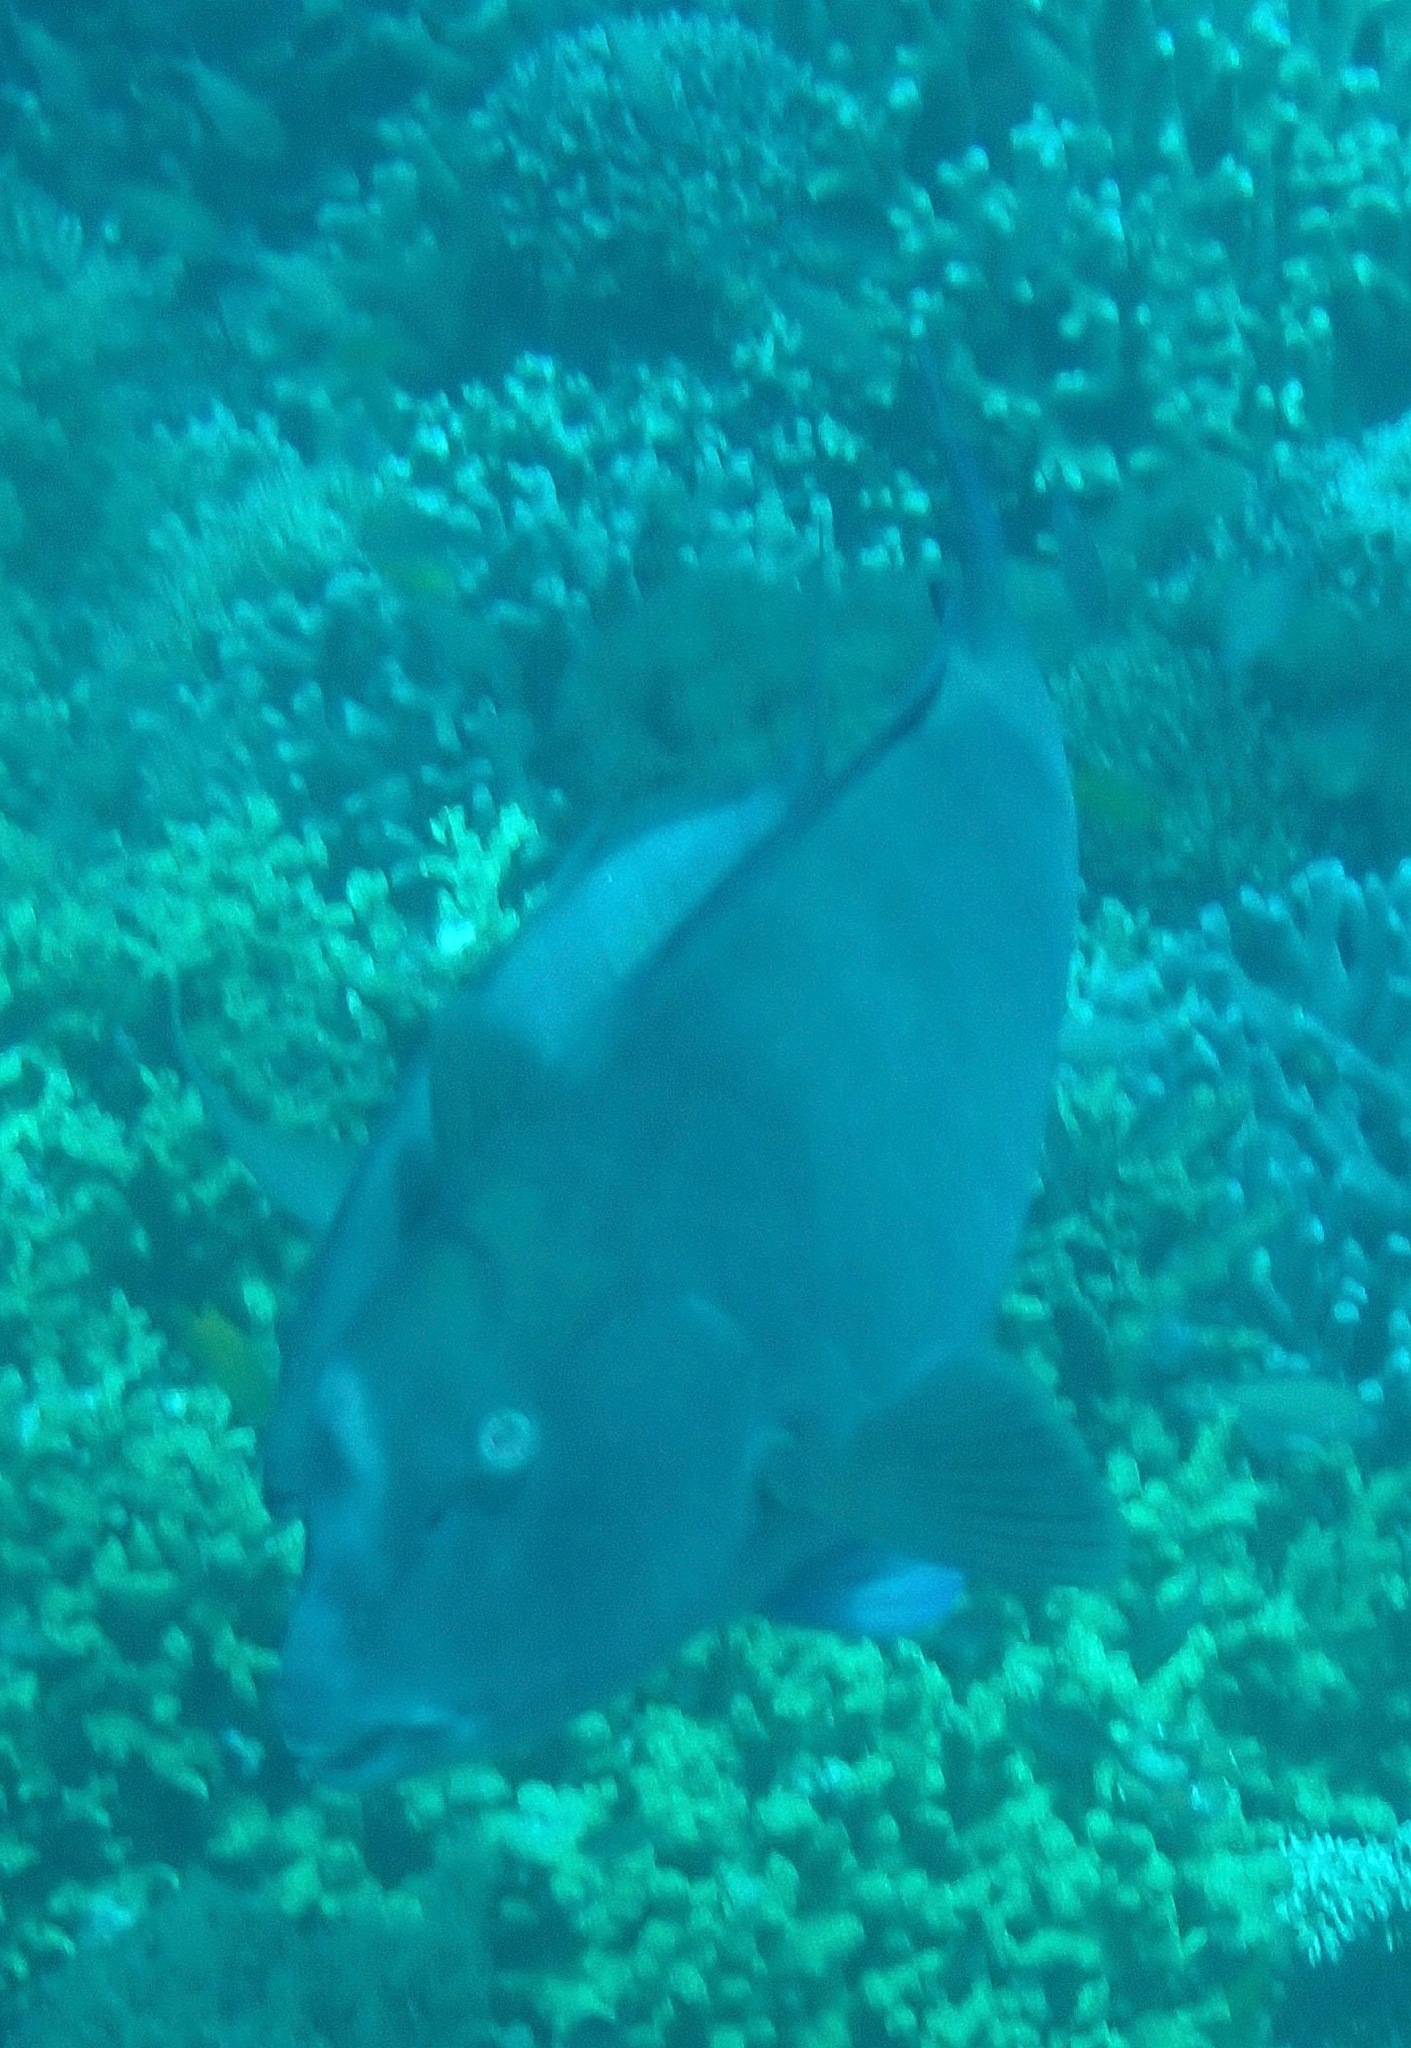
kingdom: Animalia
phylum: Chordata
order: Perciformes
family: Scaridae
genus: Bolbometopon
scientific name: Bolbometopon muricatum
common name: Humphead parrotfish
